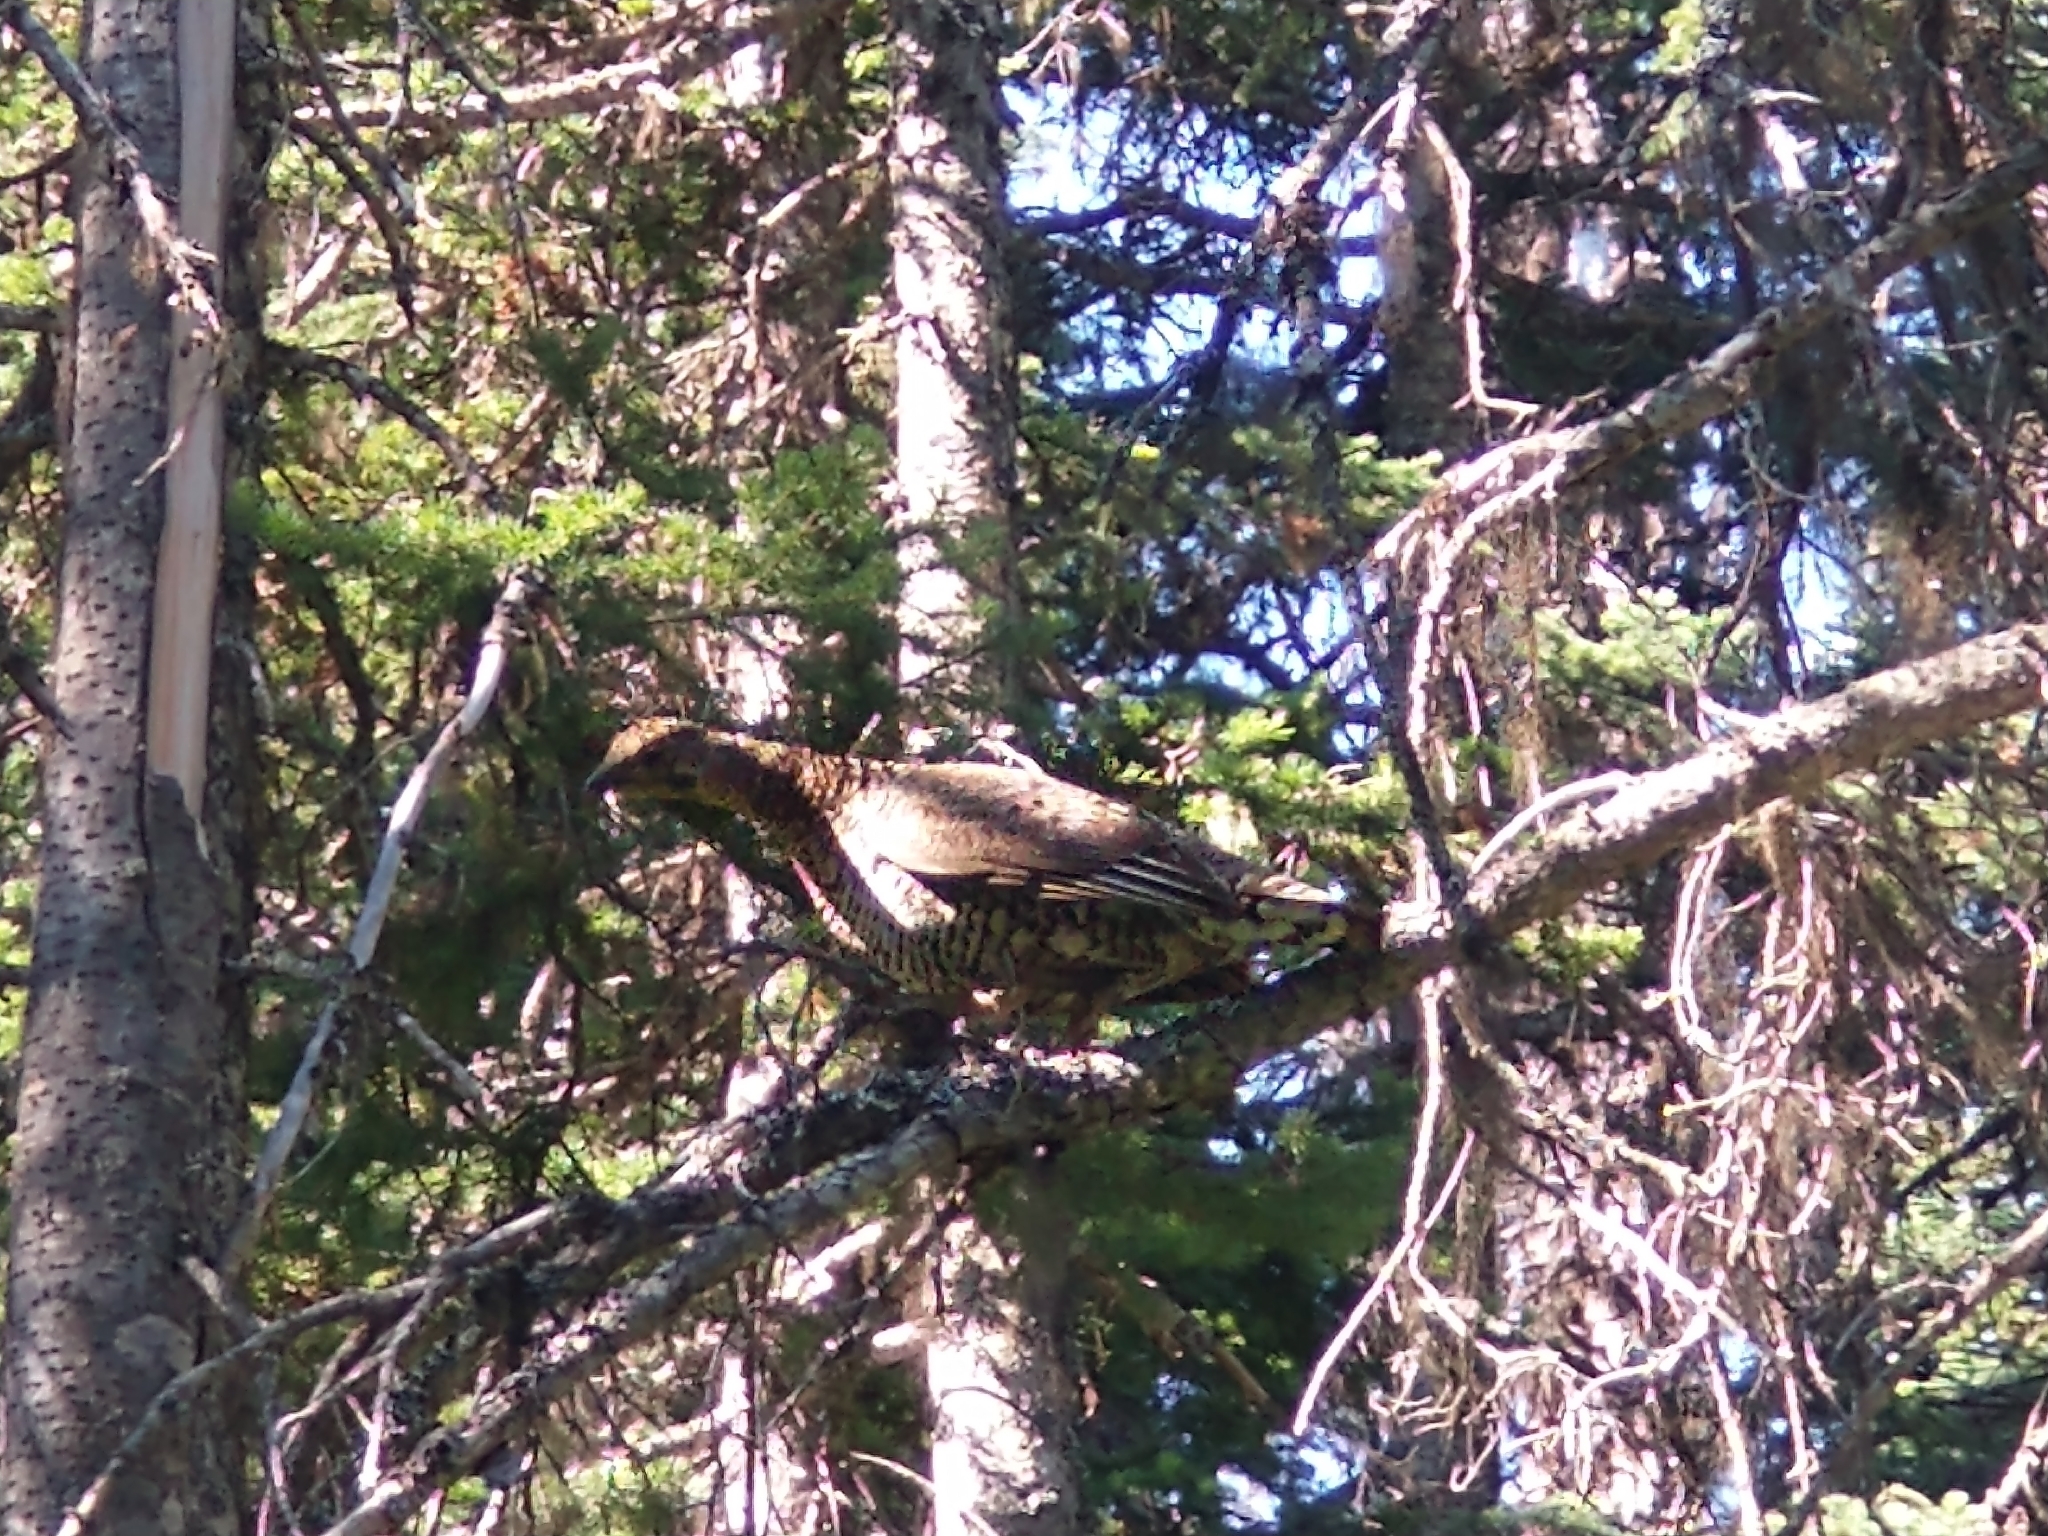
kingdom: Animalia
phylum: Chordata
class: Aves
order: Galliformes
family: Phasianidae
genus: Canachites
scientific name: Canachites canadensis
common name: Spruce grouse
